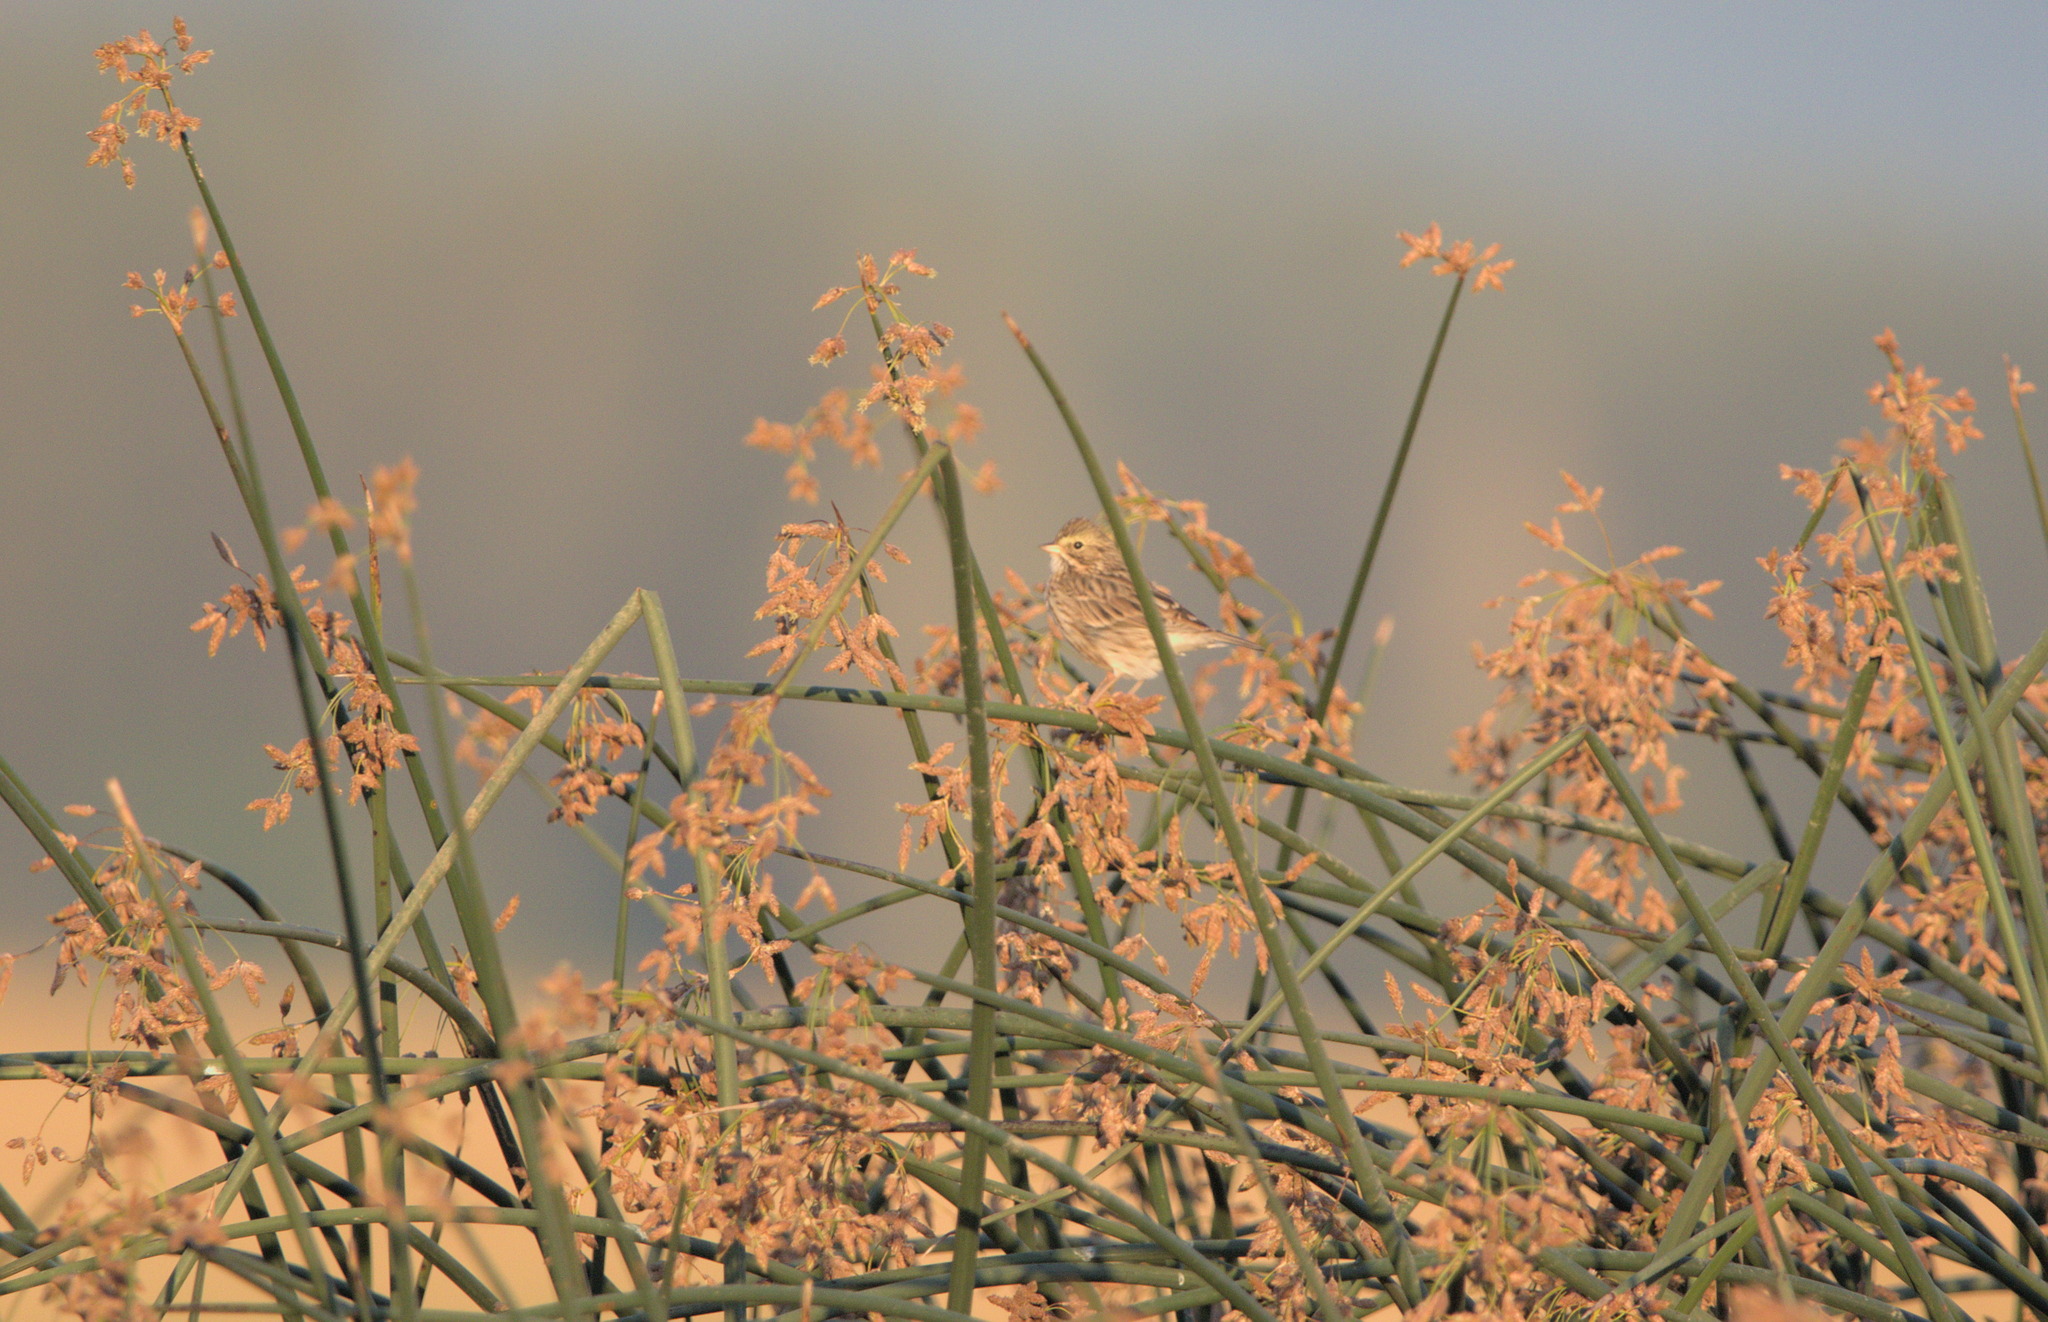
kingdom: Animalia
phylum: Chordata
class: Aves
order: Passeriformes
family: Passerellidae
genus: Passerculus
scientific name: Passerculus sandwichensis
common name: Savannah sparrow
